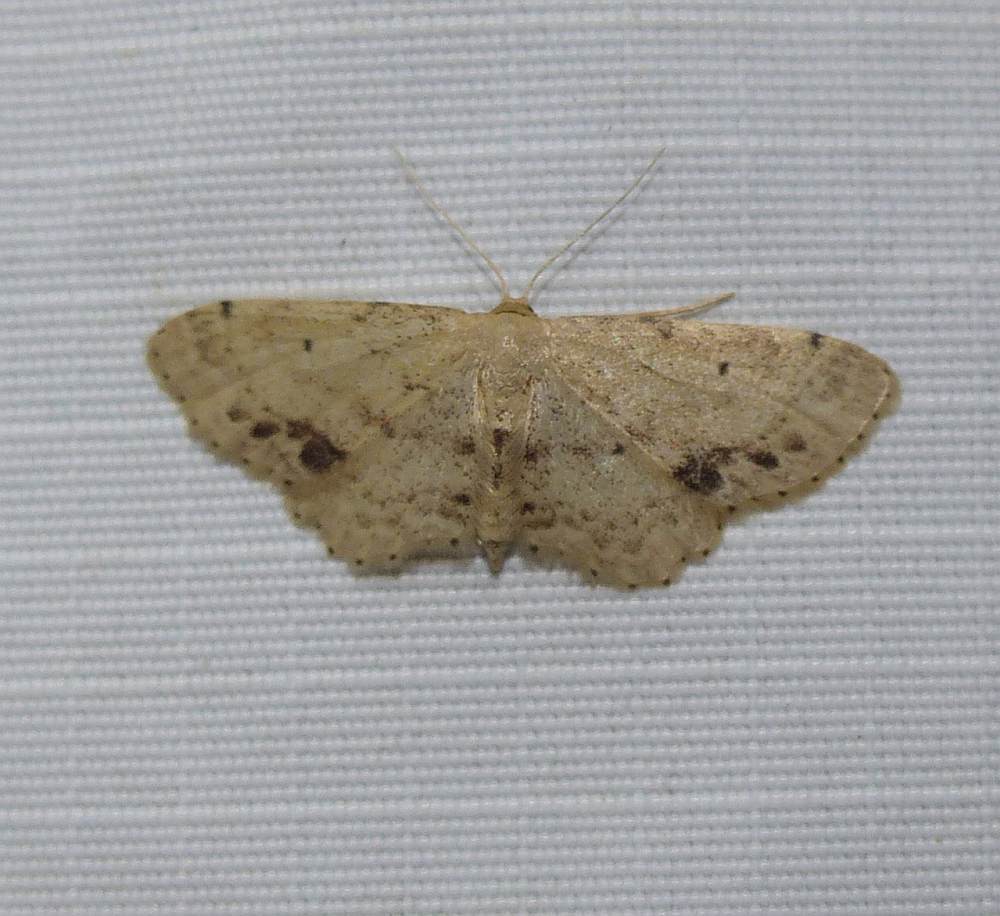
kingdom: Animalia
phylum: Arthropoda
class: Insecta
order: Lepidoptera
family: Geometridae
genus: Idaea
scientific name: Idaea dimidiata
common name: Single-dotted wave
